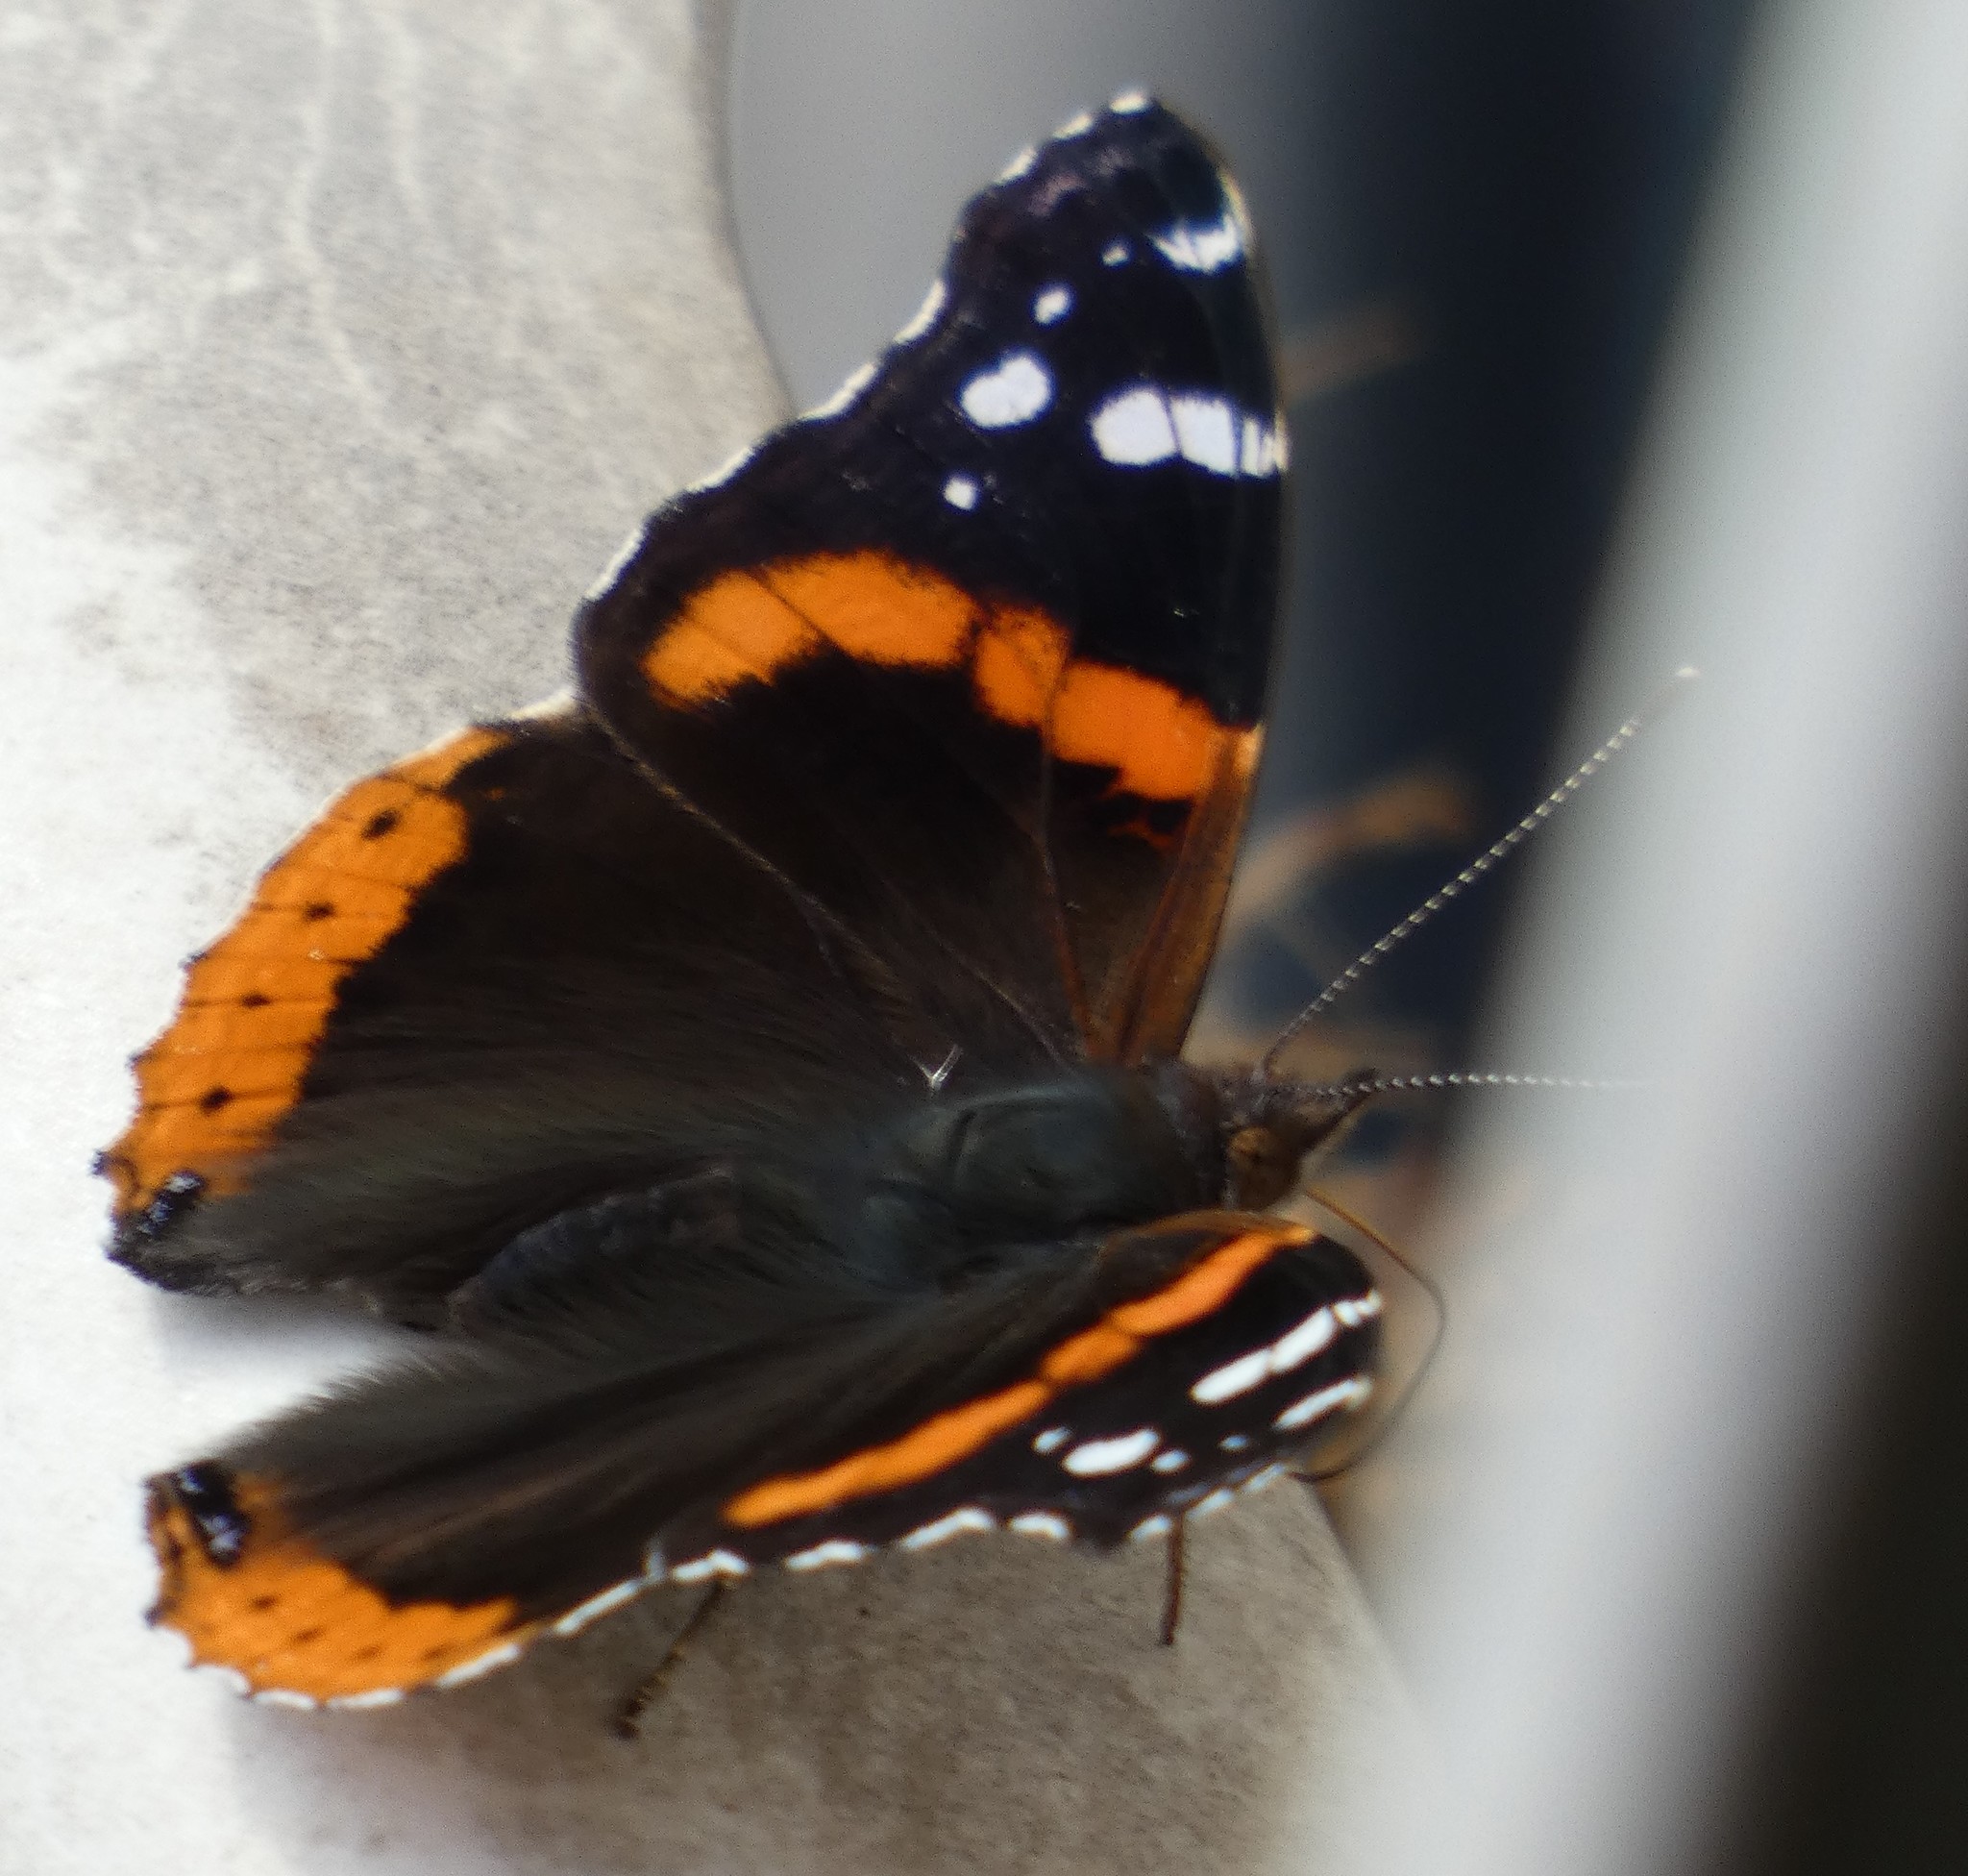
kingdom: Animalia
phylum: Arthropoda
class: Insecta
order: Lepidoptera
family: Nymphalidae
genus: Vanessa
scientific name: Vanessa atalanta
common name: Red admiral
